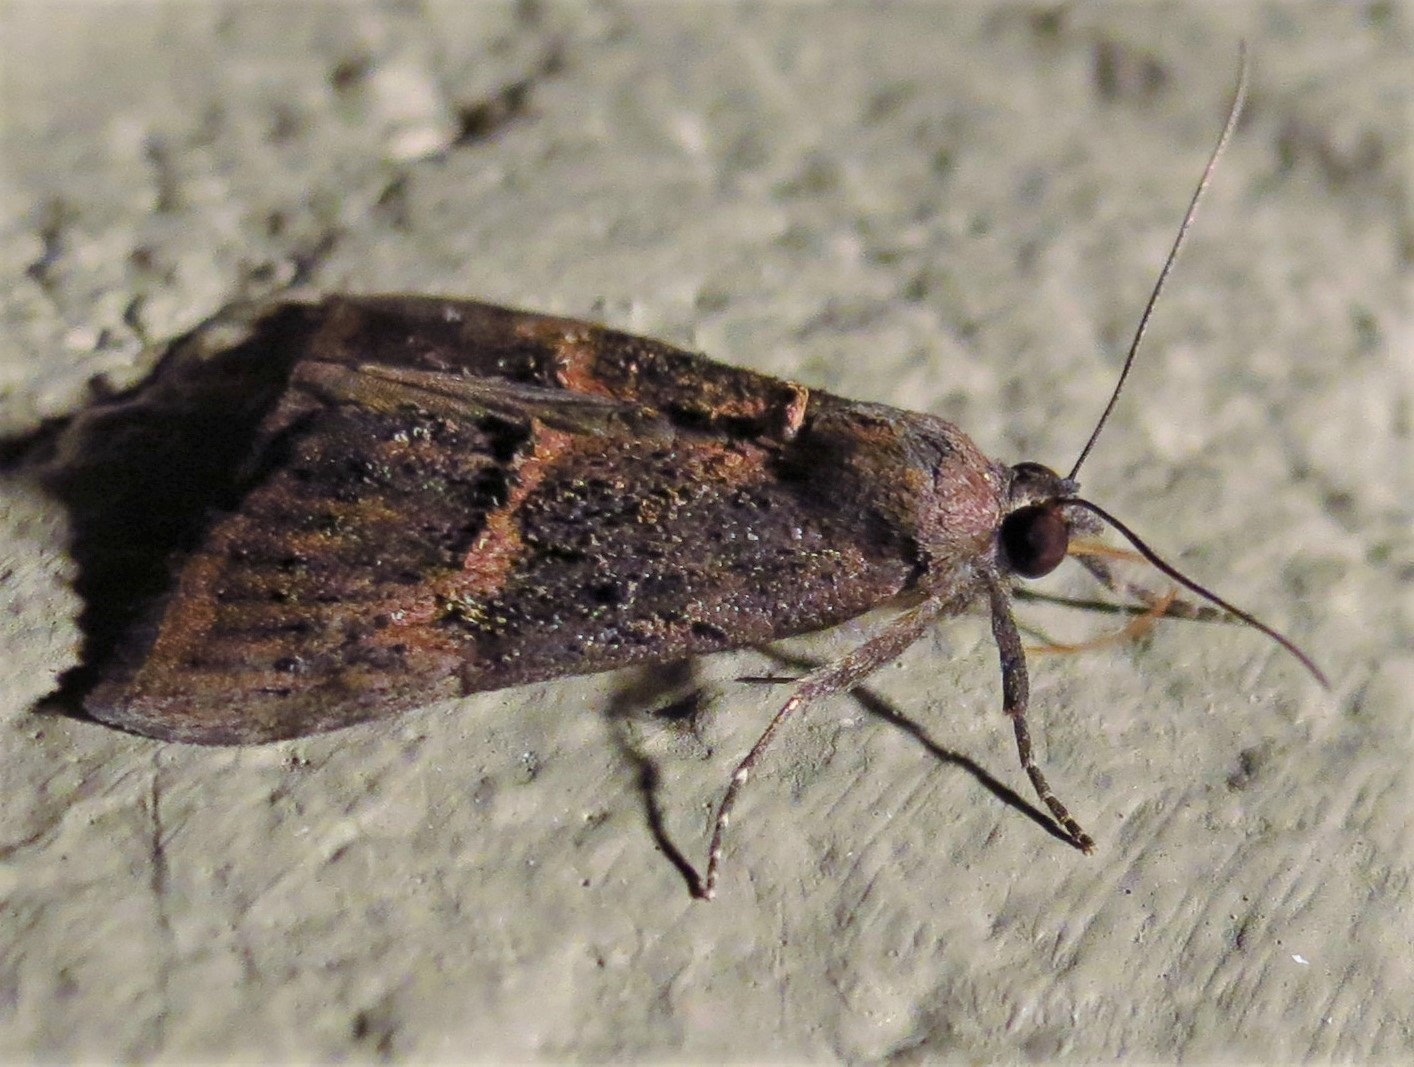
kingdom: Animalia
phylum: Arthropoda
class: Insecta
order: Lepidoptera
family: Erebidae
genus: Hypena
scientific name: Hypena scabra
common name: Green cloverworm
